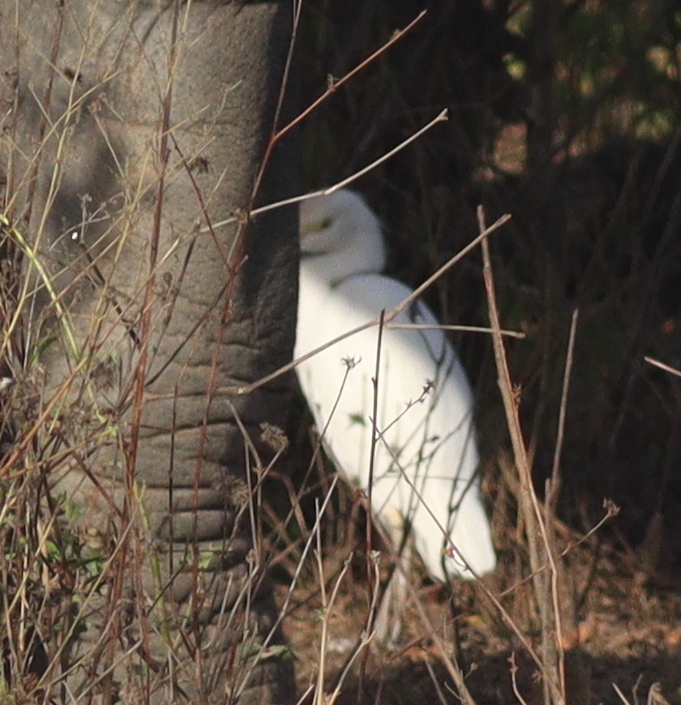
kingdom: Animalia
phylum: Chordata
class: Aves
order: Pelecaniformes
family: Ardeidae
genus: Bubulcus
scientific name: Bubulcus ibis
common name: Cattle egret
